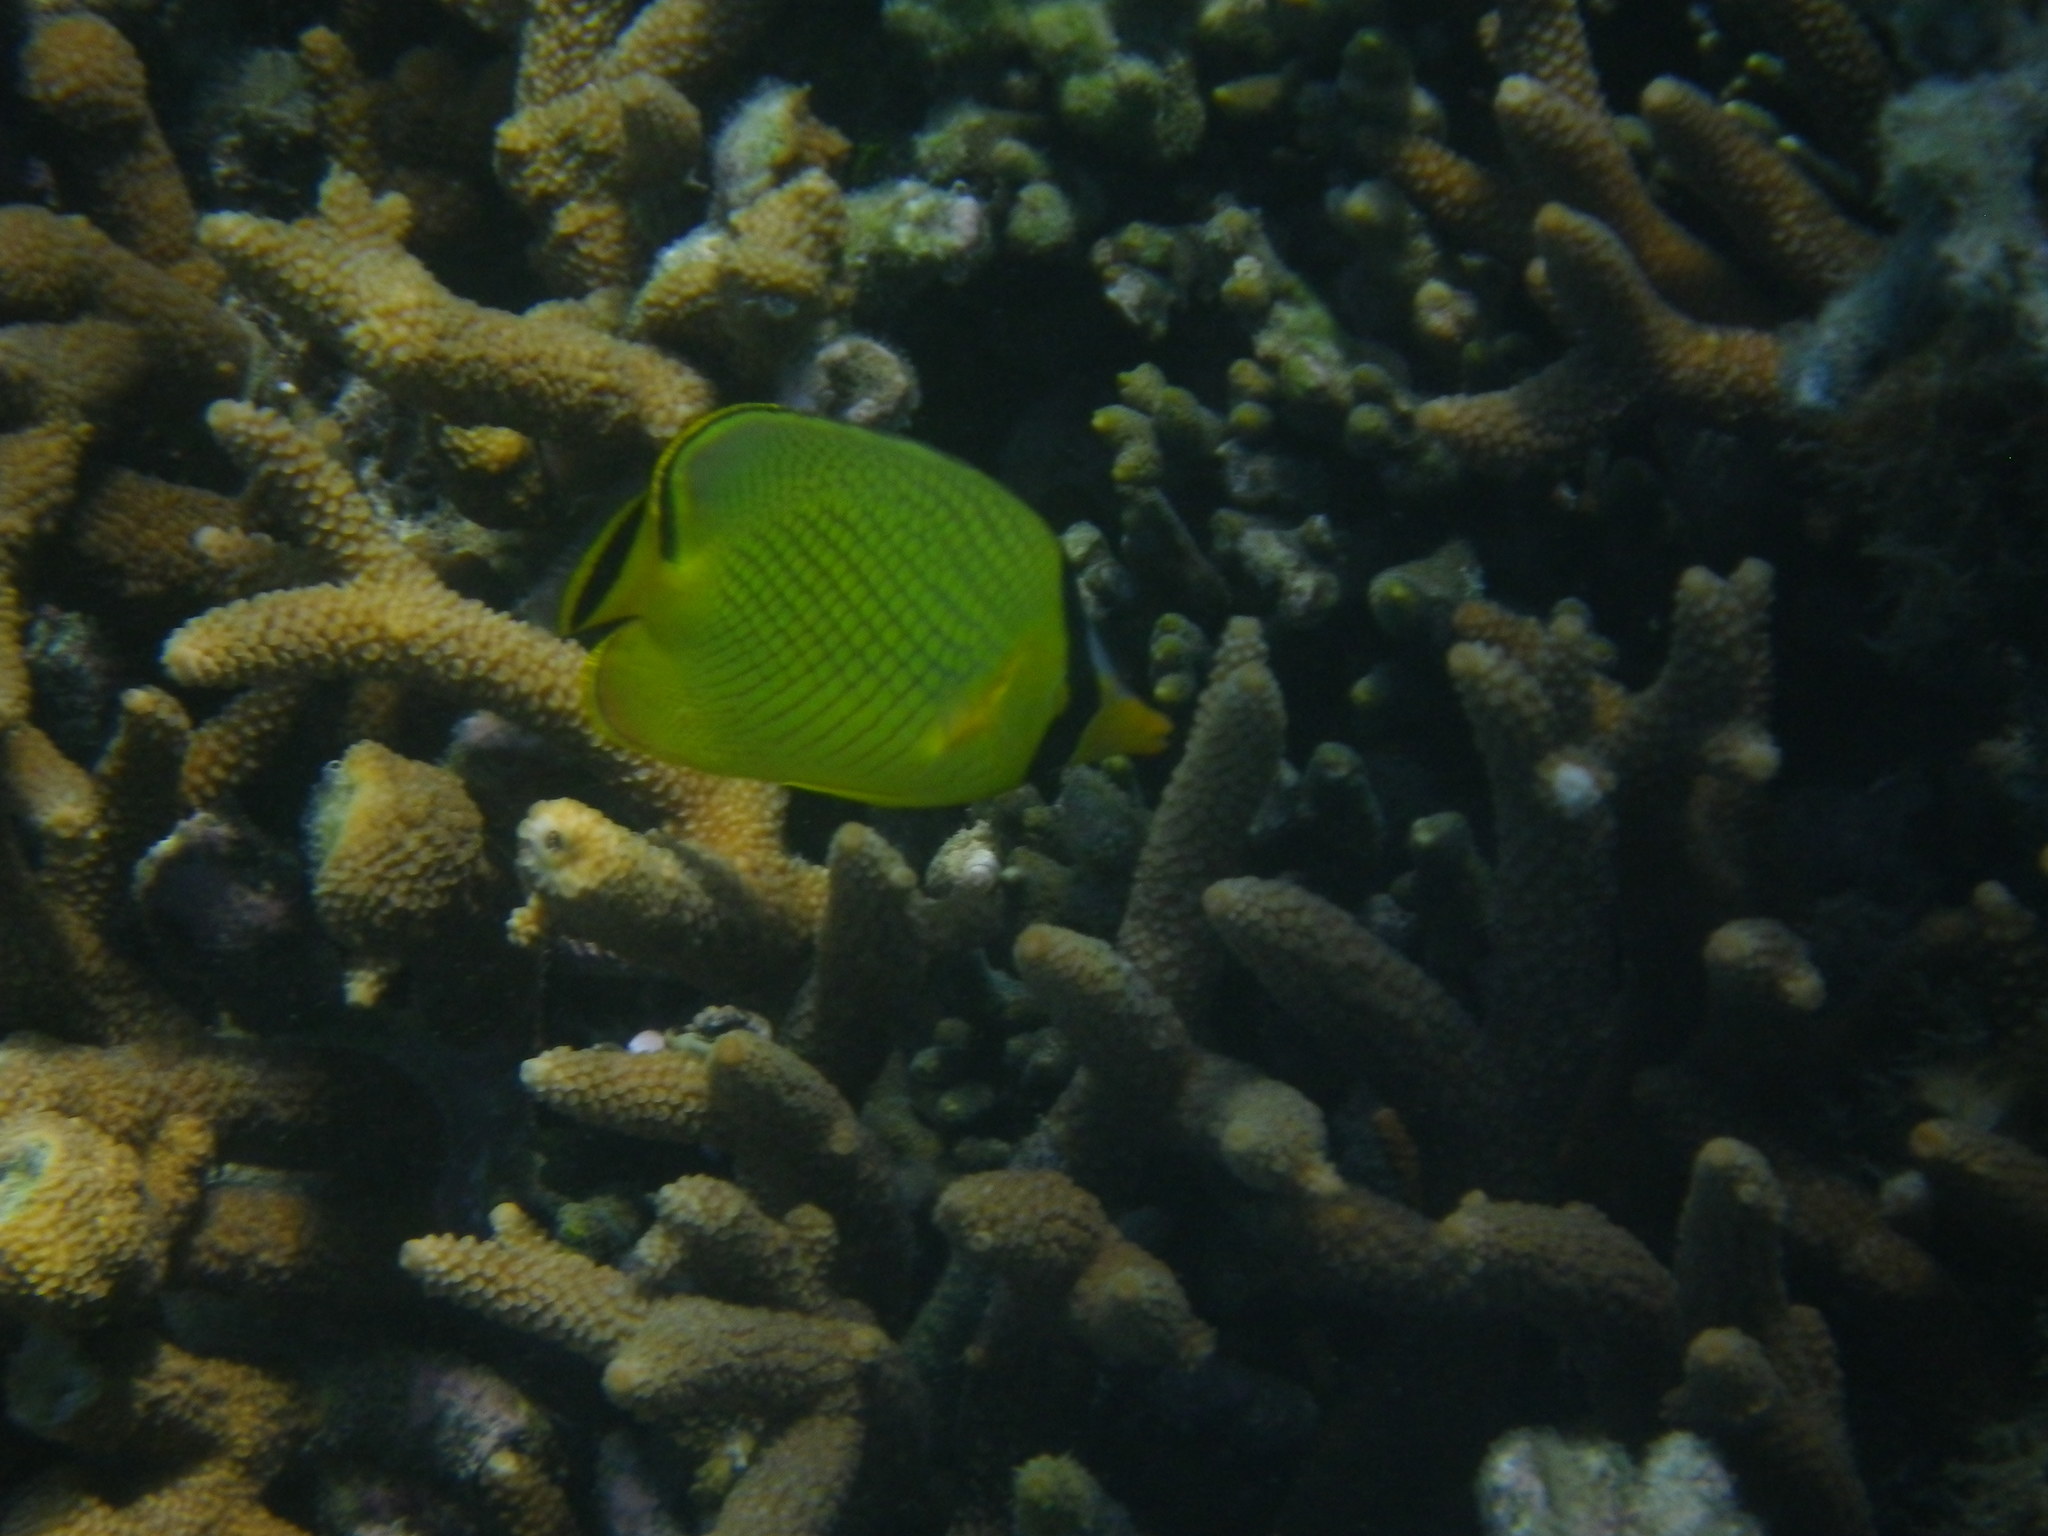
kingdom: Animalia
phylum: Chordata
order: Perciformes
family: Chaetodontidae
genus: Chaetodon
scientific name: Chaetodon rafflesii
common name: Latticed butterflyfish
